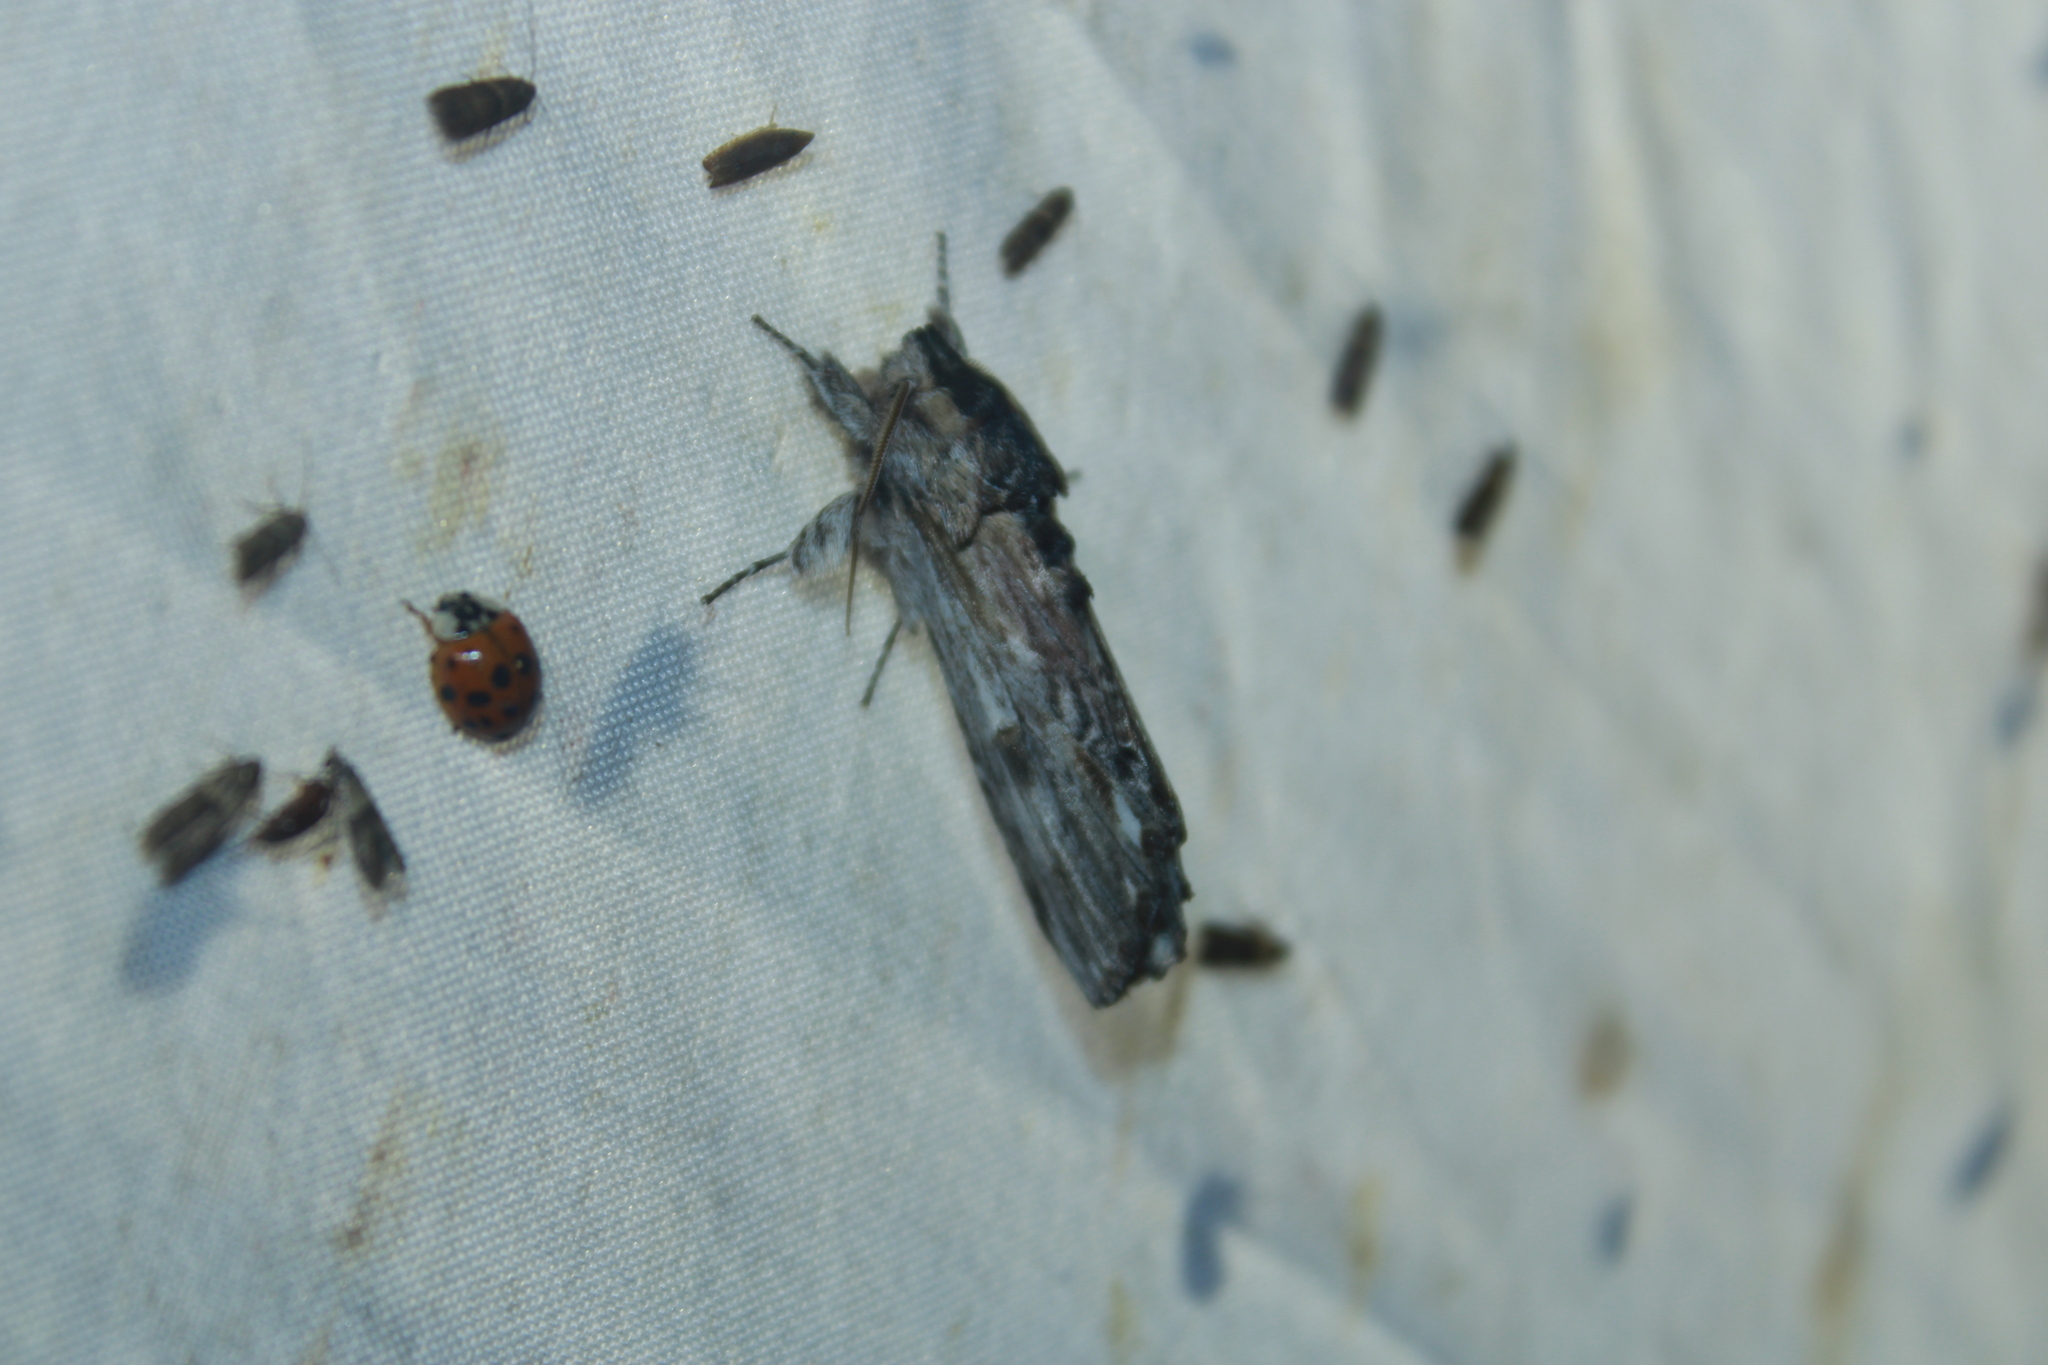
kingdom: Animalia
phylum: Arthropoda
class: Insecta
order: Lepidoptera
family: Notodontidae
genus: Oligocentria
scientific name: Oligocentria Ianassa lignicolor
